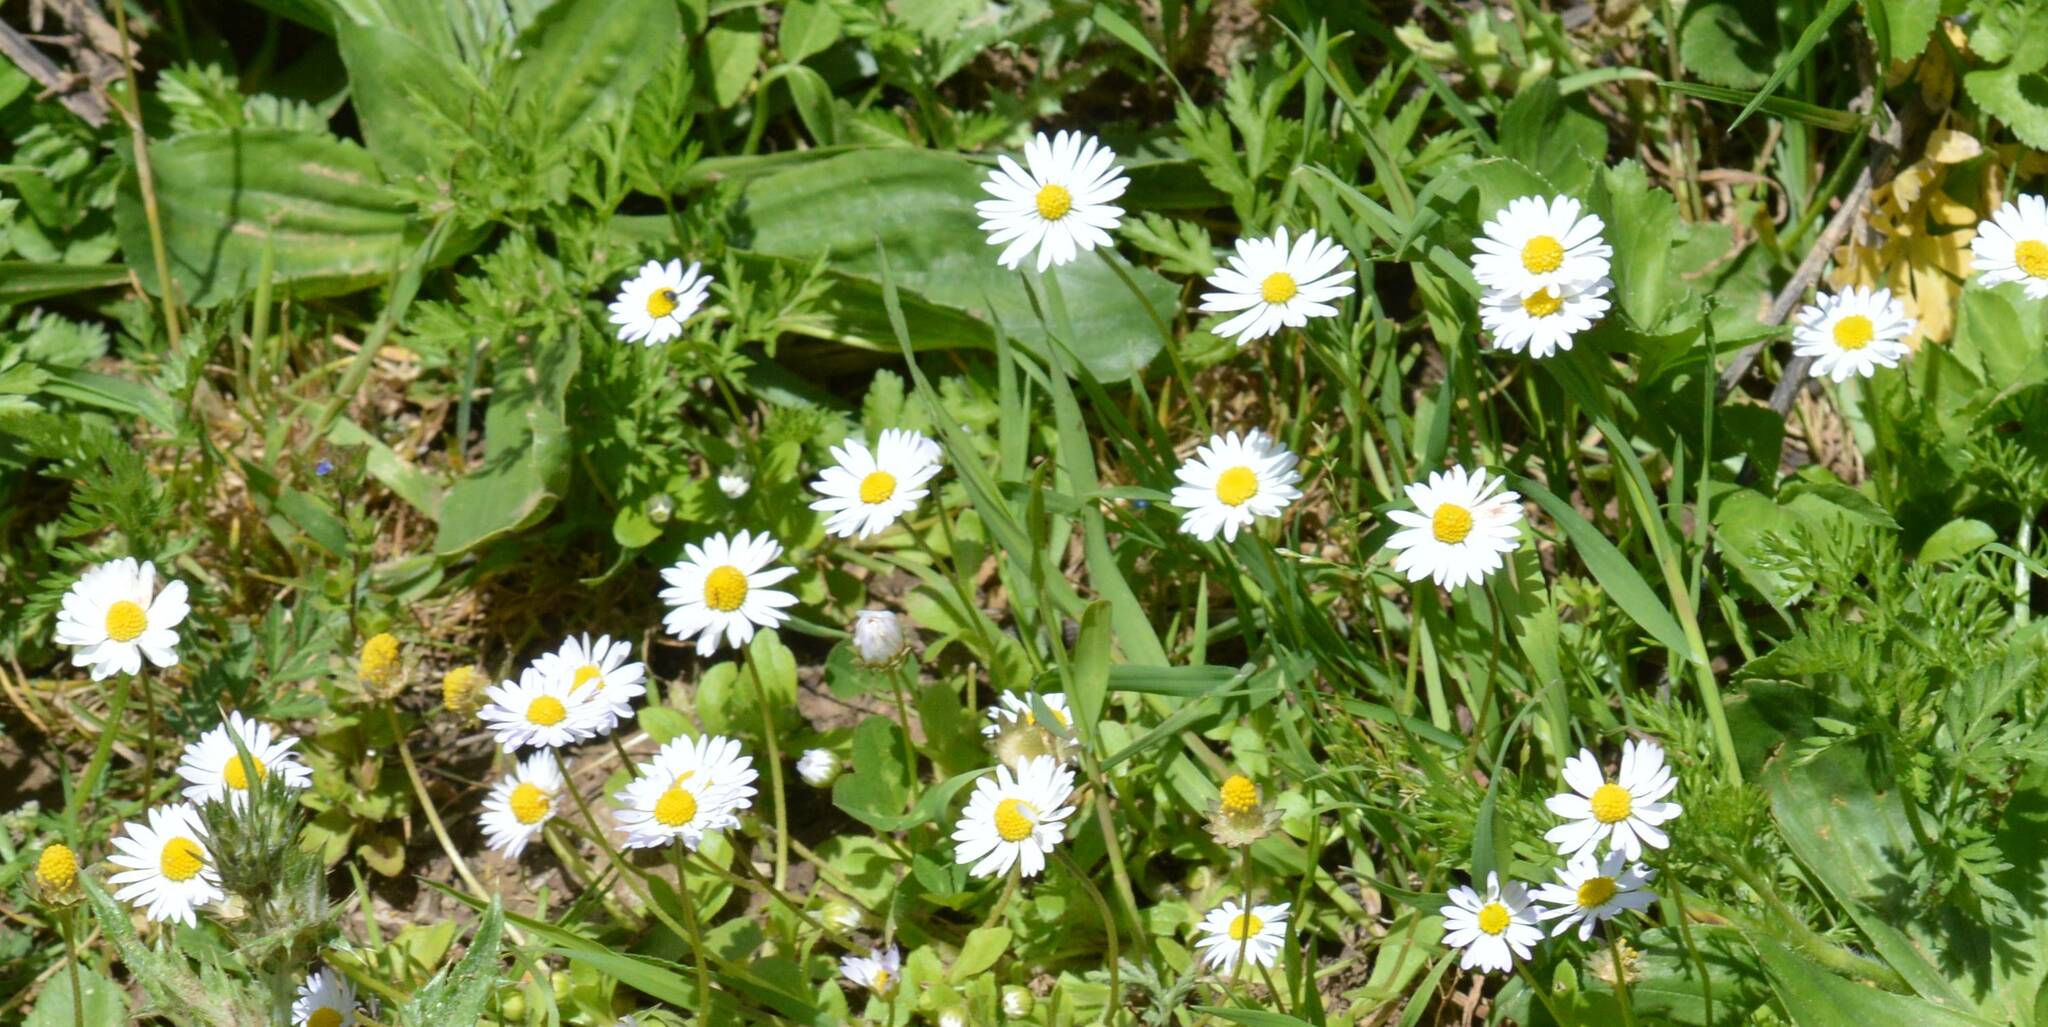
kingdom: Plantae
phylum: Tracheophyta
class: Magnoliopsida
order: Asterales
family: Asteraceae
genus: Bellis
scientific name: Bellis perennis
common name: Lawndaisy
